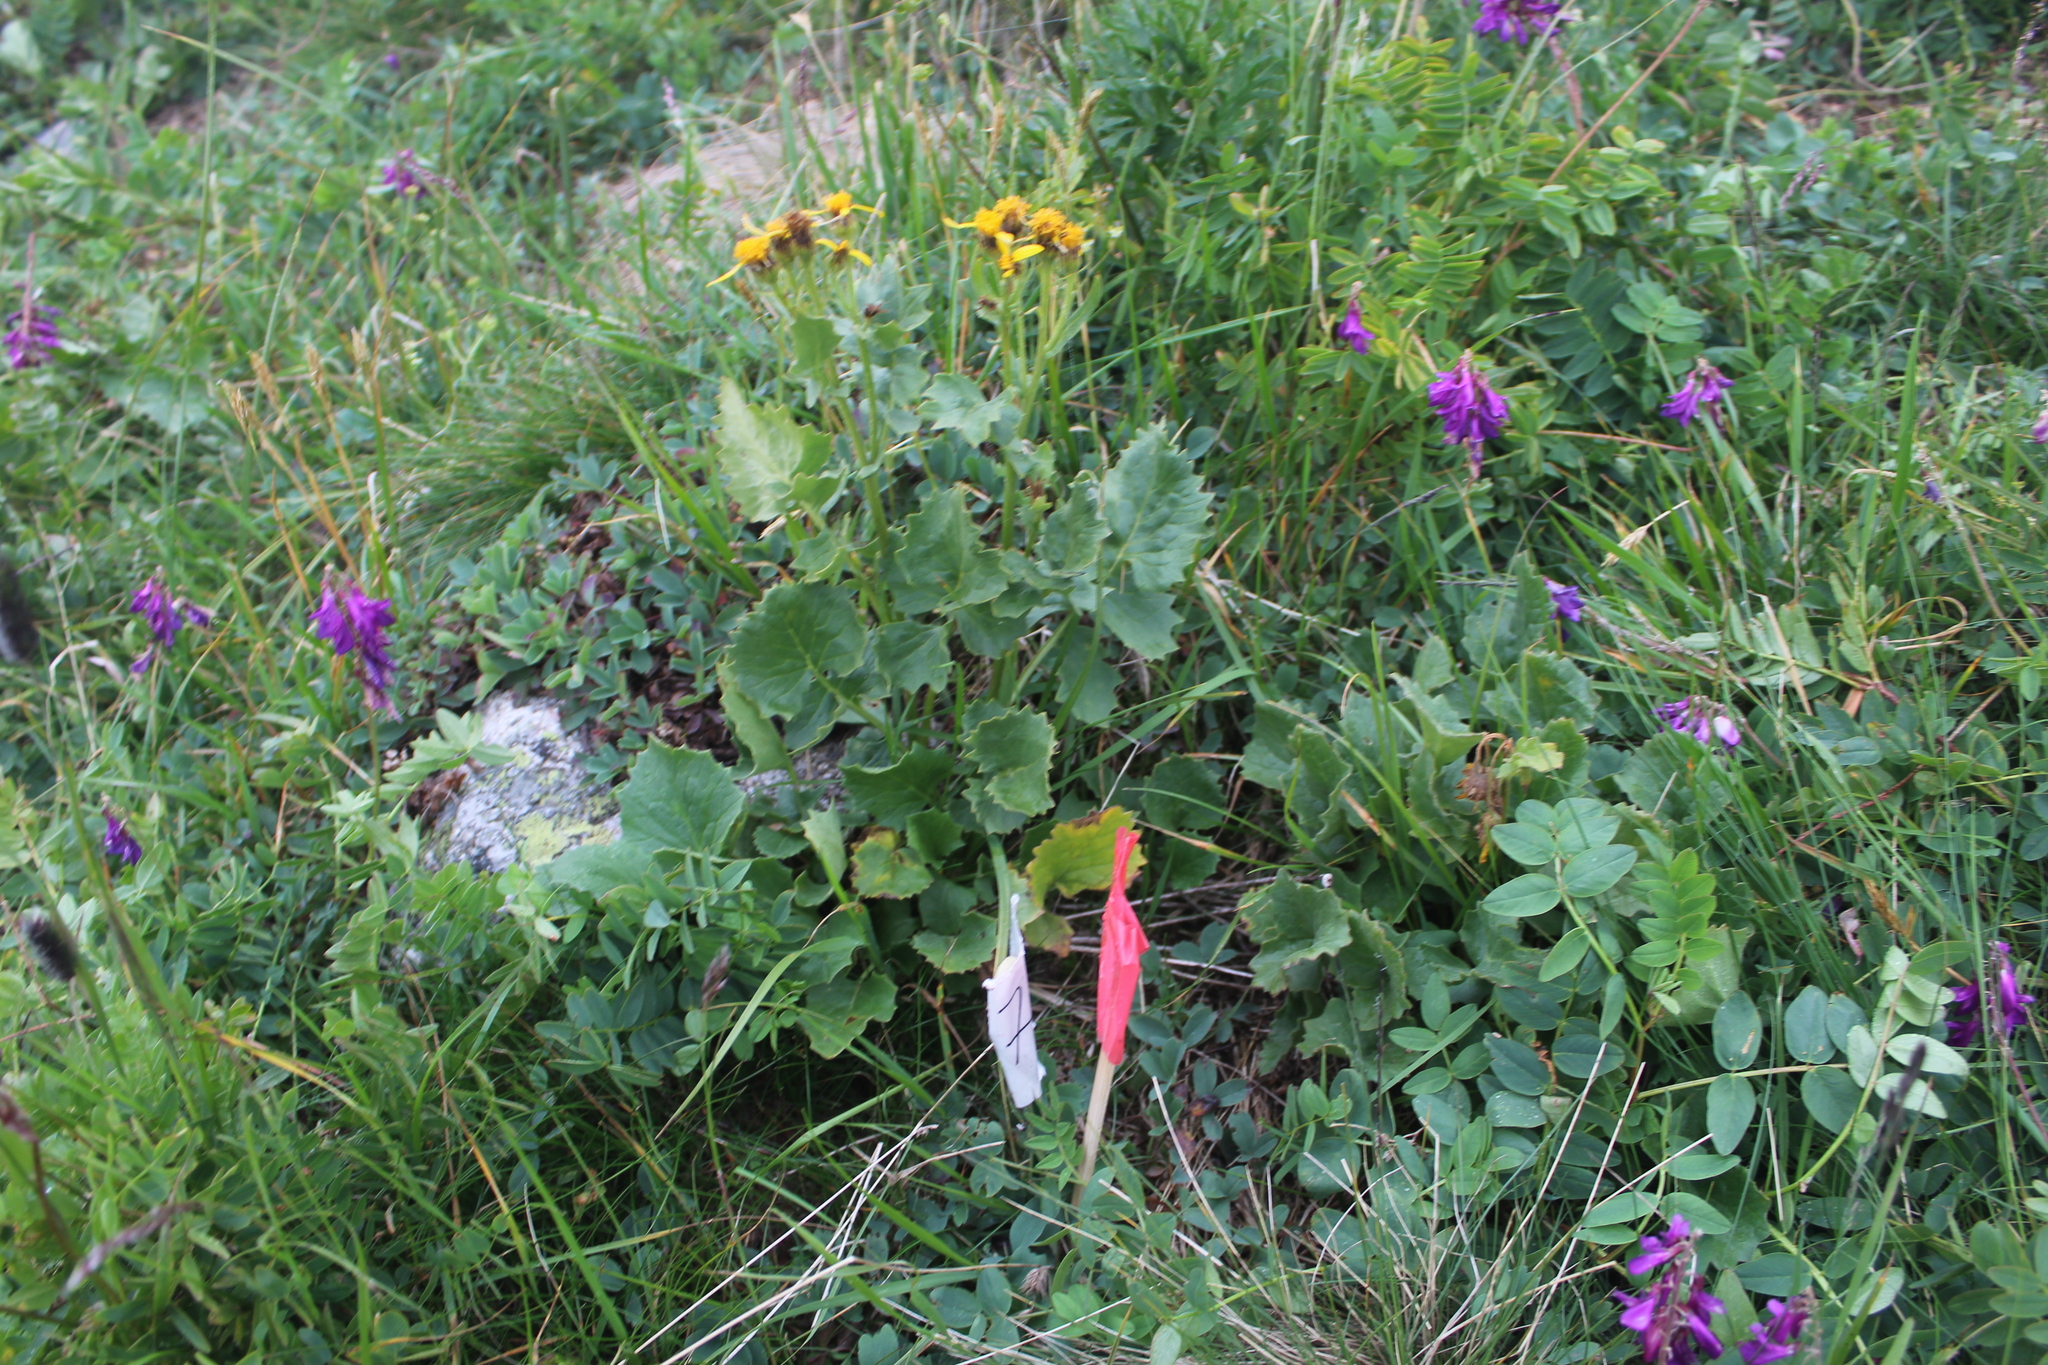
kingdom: Plantae
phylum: Tracheophyta
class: Magnoliopsida
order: Asterales
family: Asteraceae
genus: Turanecio
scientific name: Turanecio taraxacifolius
